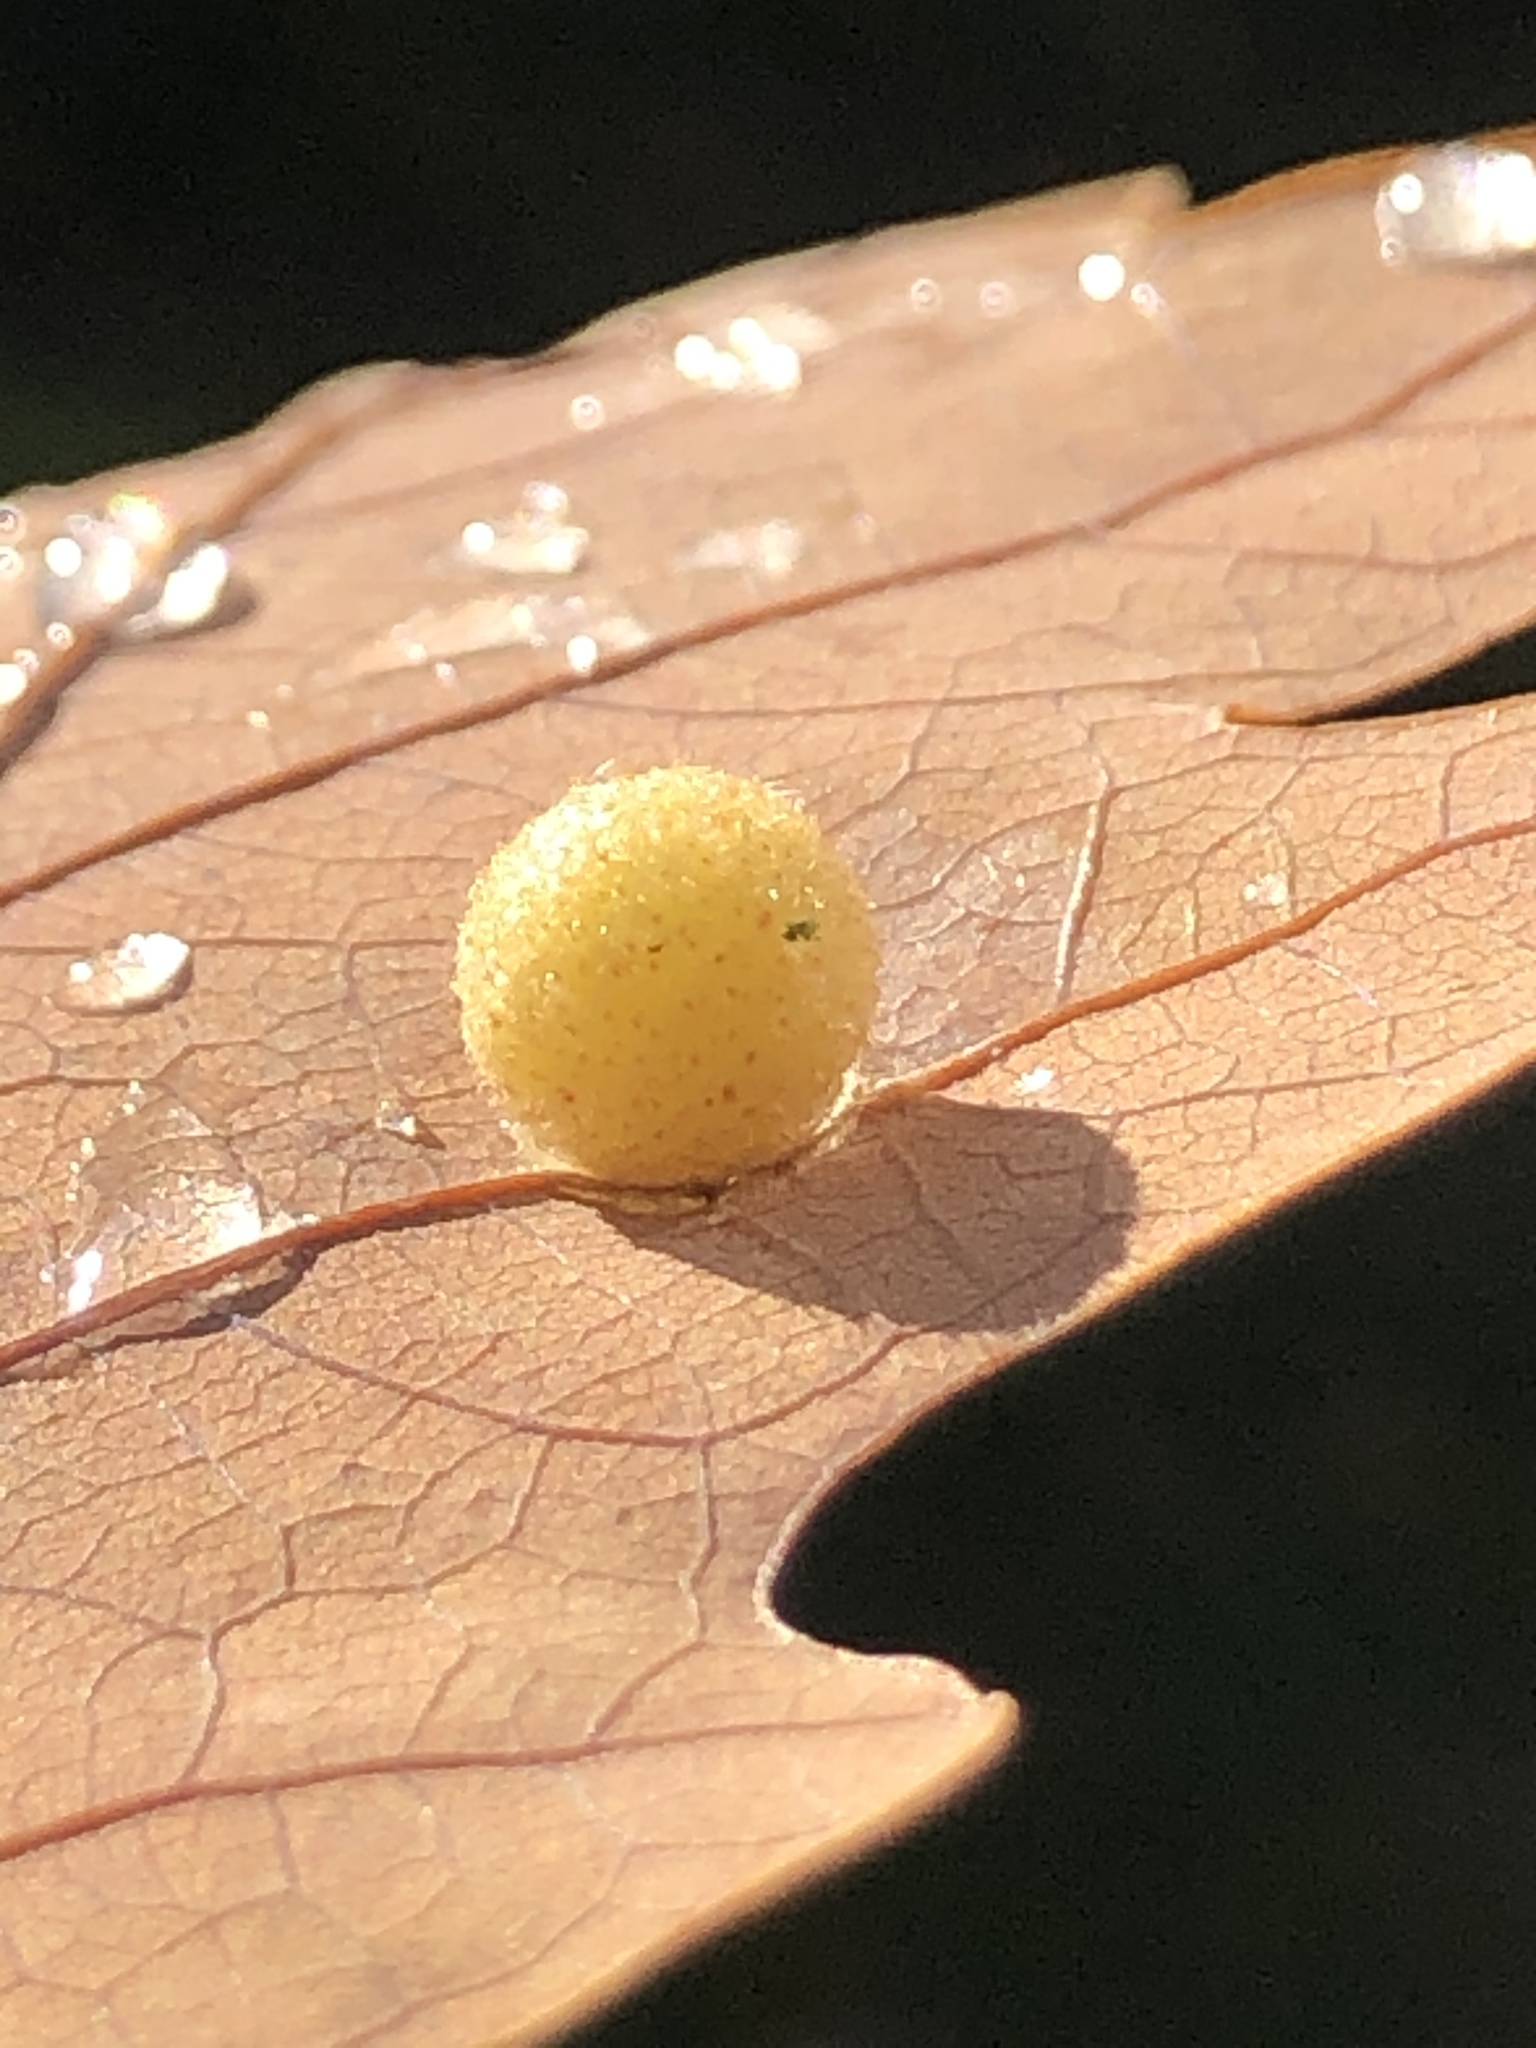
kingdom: Animalia
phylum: Arthropoda
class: Insecta
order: Hymenoptera
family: Cynipidae
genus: Philonix
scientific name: Philonix fulvicollis
